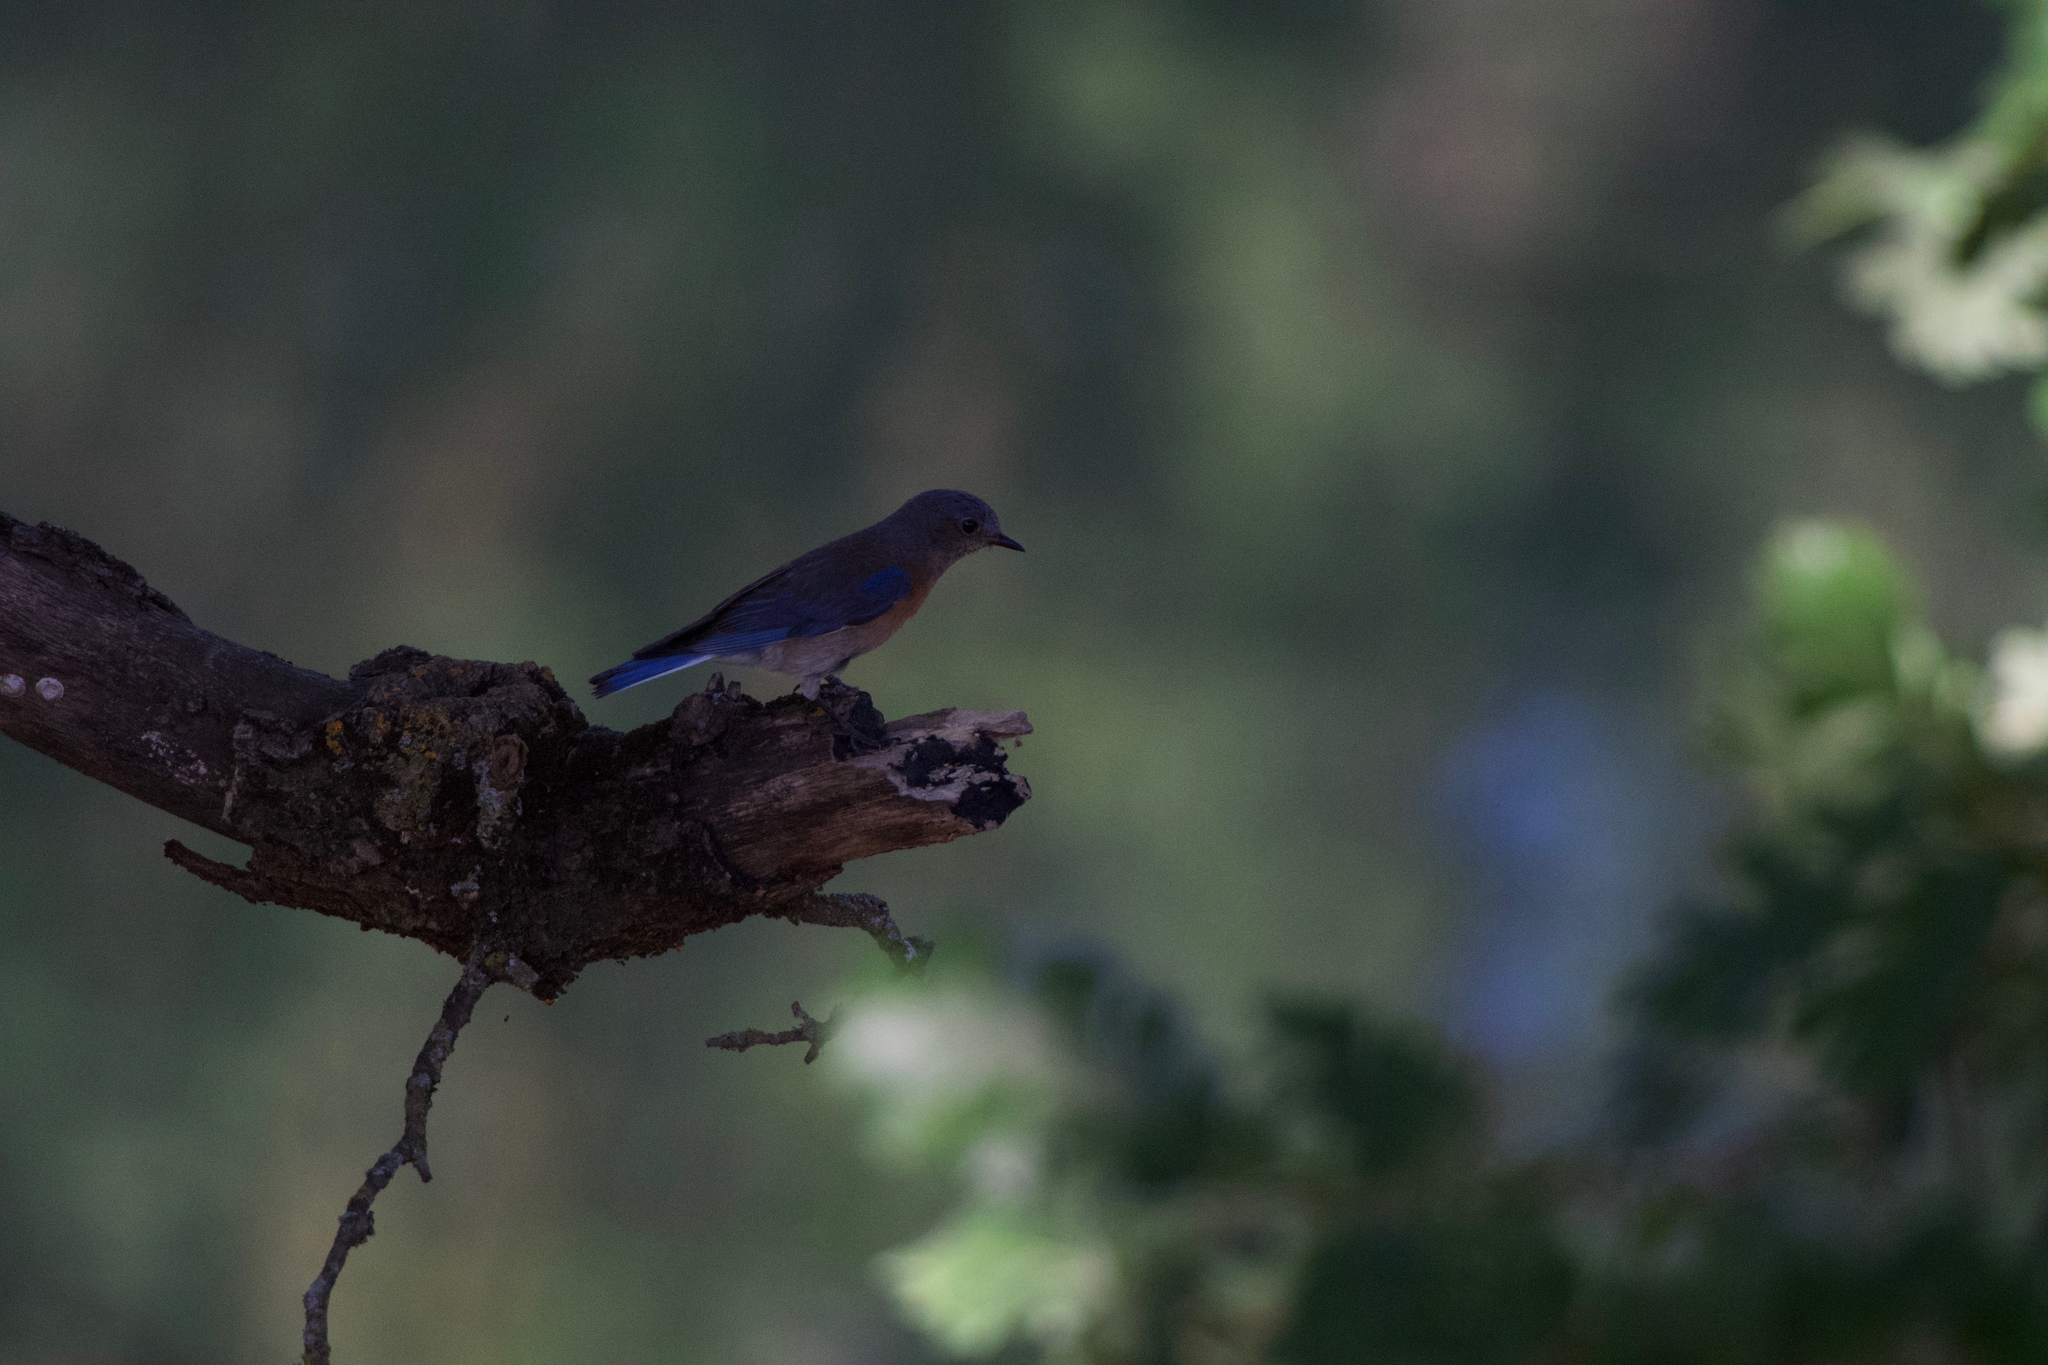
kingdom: Animalia
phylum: Chordata
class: Aves
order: Passeriformes
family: Turdidae
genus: Sialia
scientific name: Sialia mexicana
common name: Western bluebird
